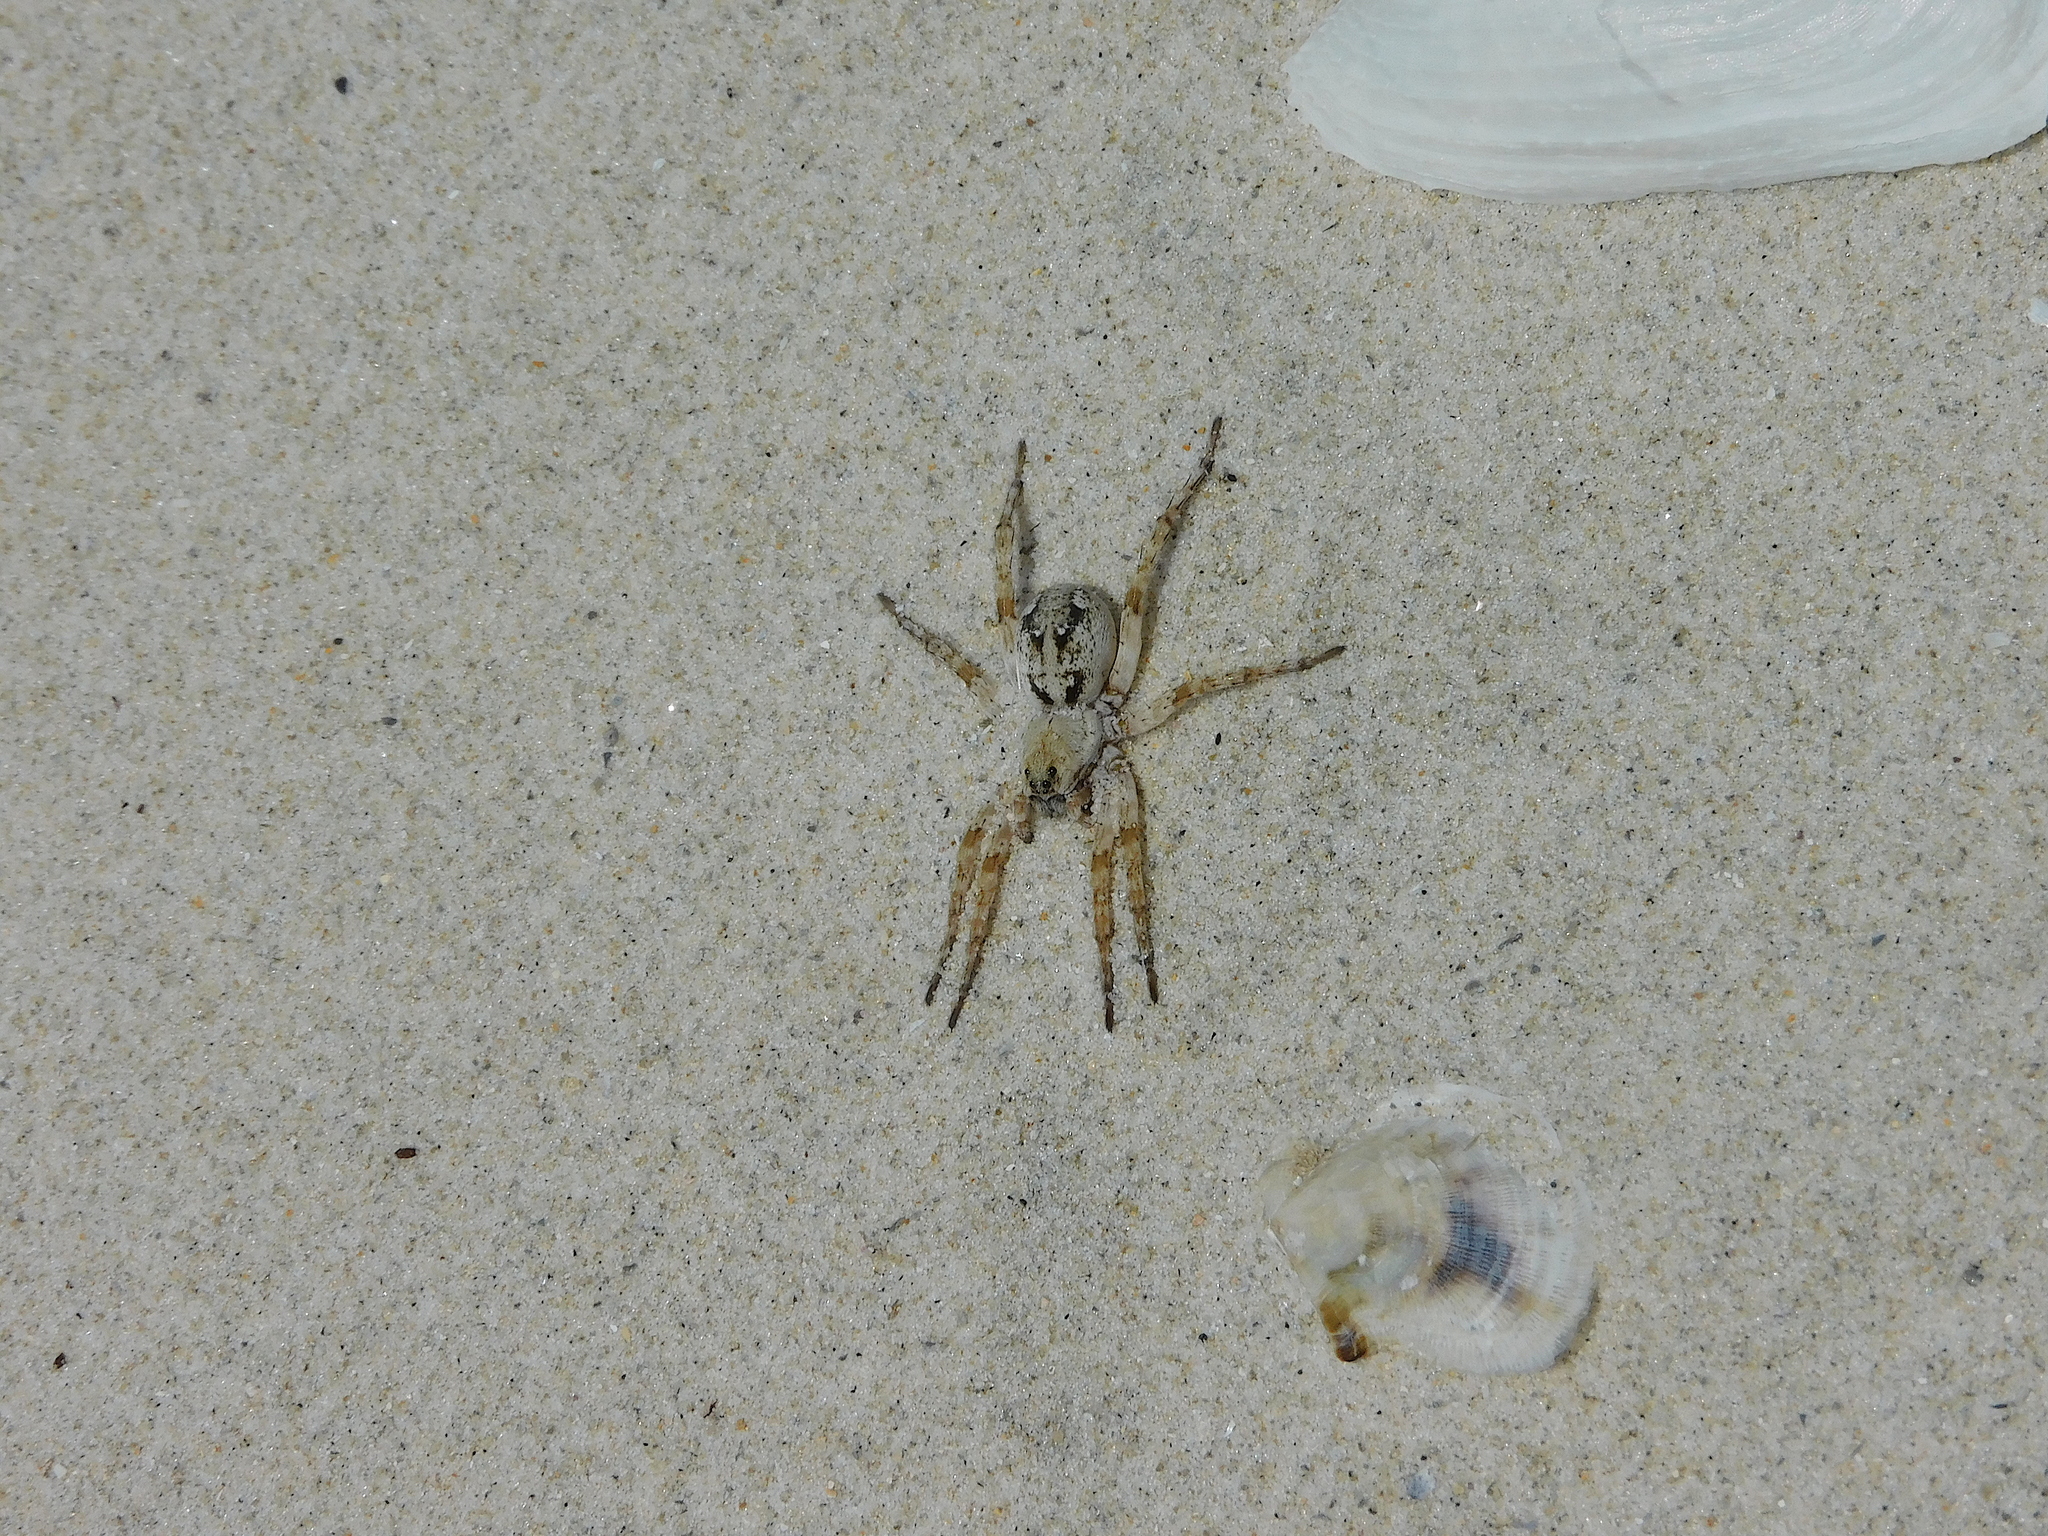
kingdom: Animalia
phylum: Arthropoda
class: Arachnida
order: Araneae
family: Lycosidae
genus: Tetralycosa
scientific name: Tetralycosa oraria
